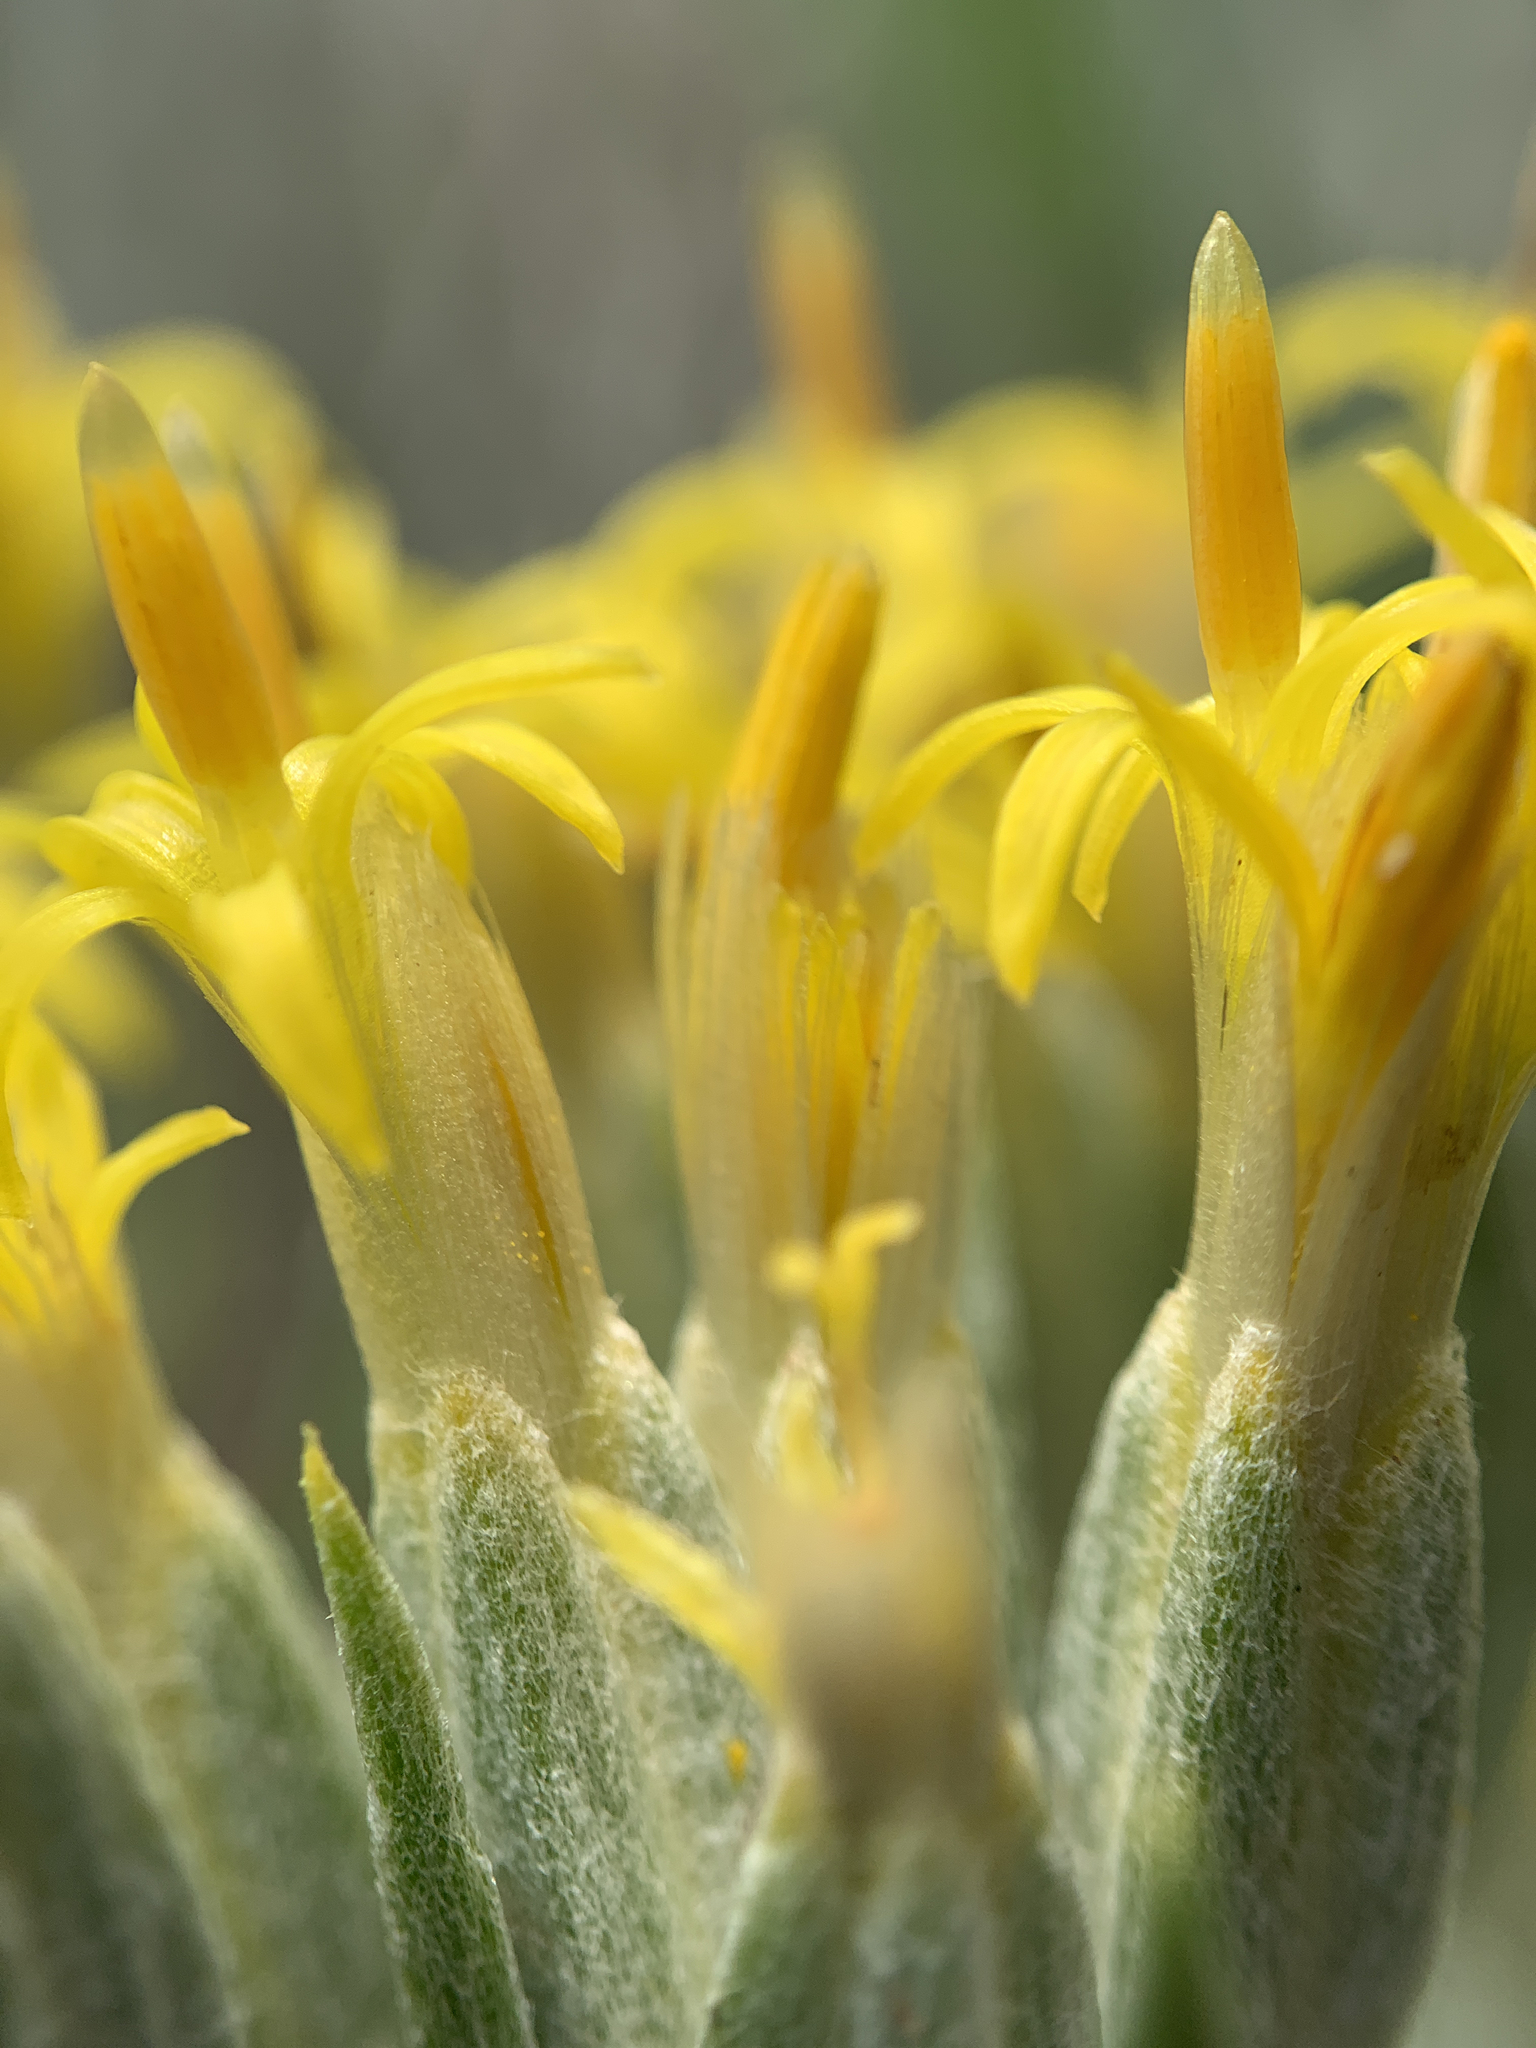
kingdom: Plantae
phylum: Tracheophyta
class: Magnoliopsida
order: Asterales
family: Asteraceae
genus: Tetradymia
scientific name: Tetradymia canescens
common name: Spineless horsebrush
